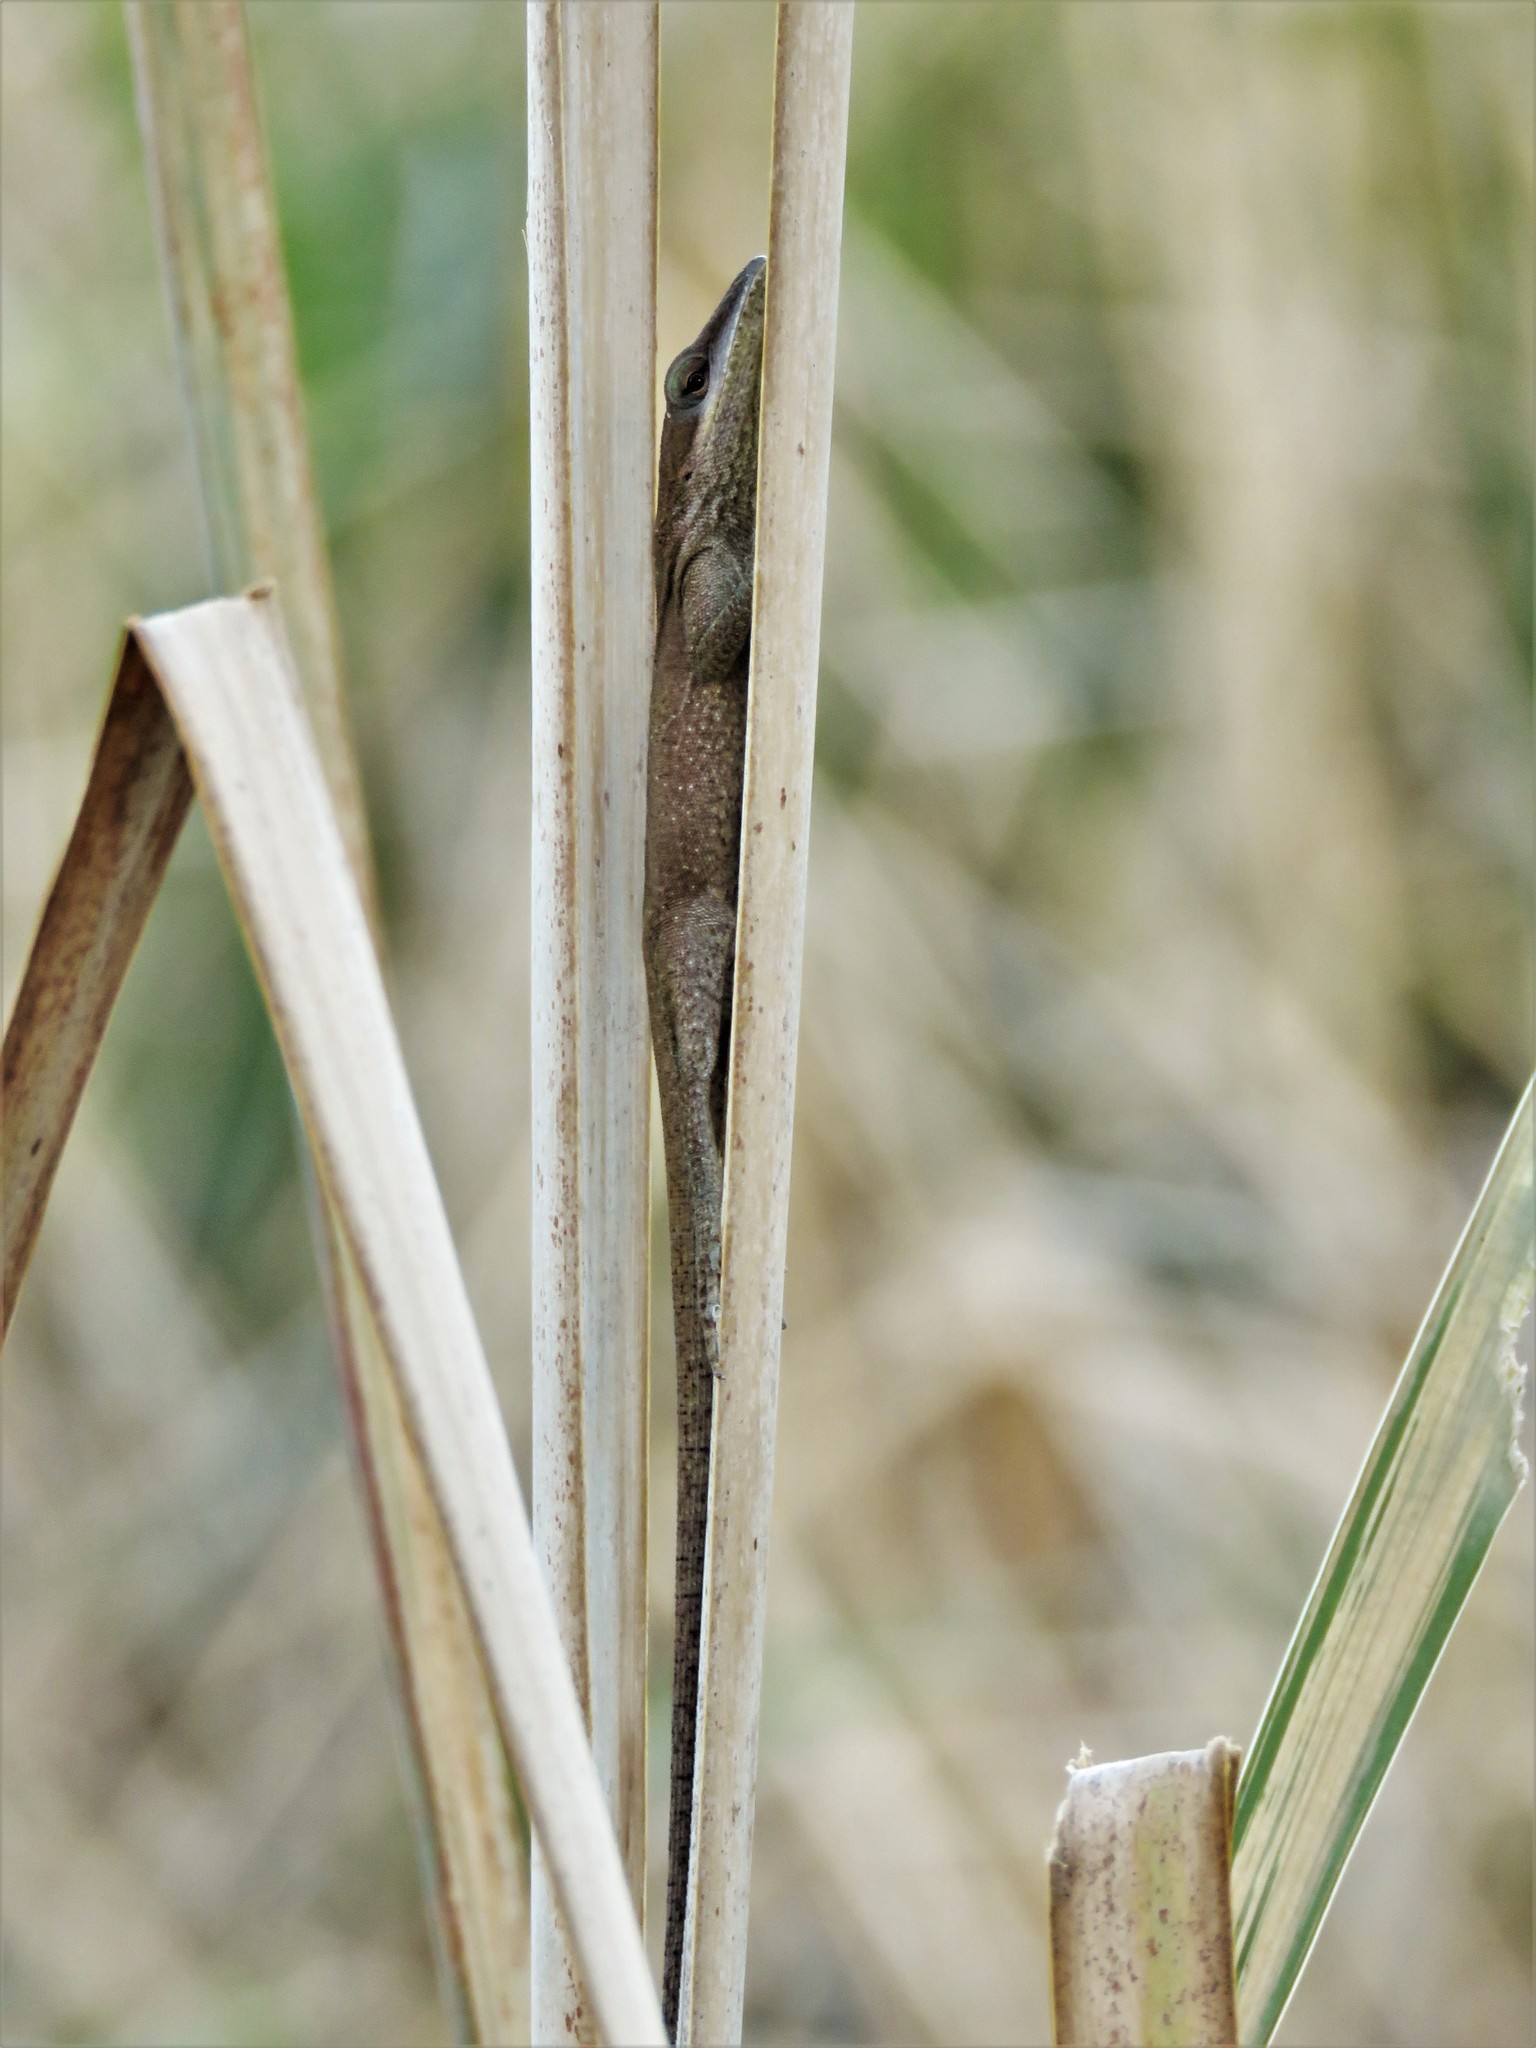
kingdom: Animalia
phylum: Chordata
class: Squamata
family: Dactyloidae
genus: Anolis
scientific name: Anolis carolinensis
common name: Green anole
